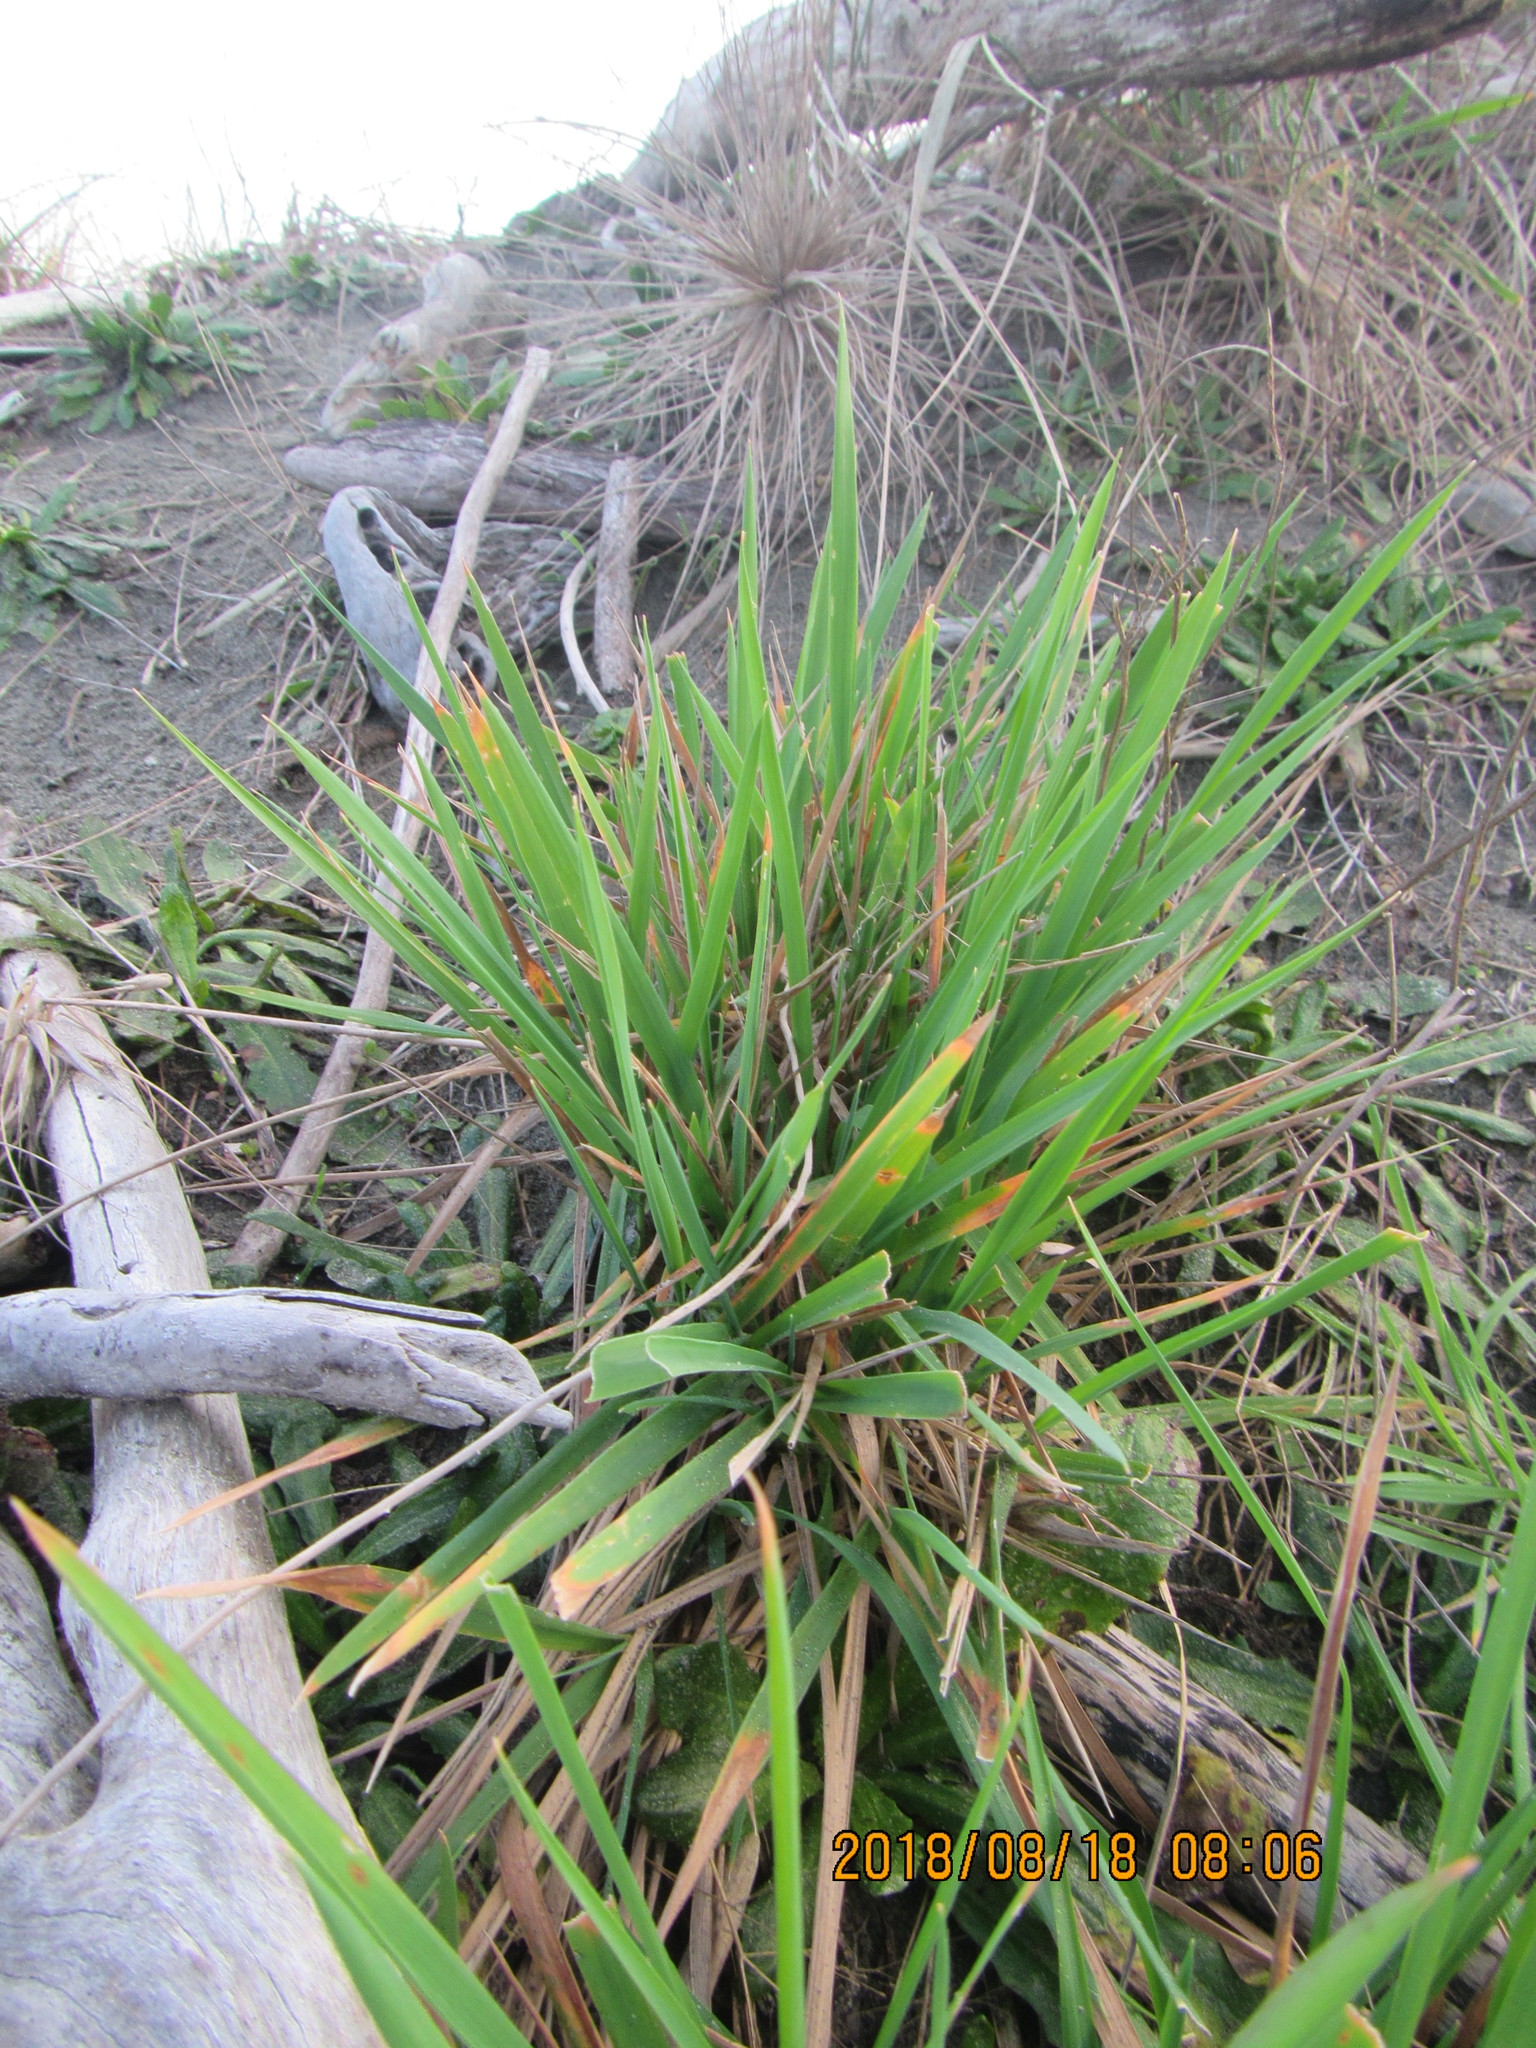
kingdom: Plantae
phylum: Tracheophyta
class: Liliopsida
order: Poales
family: Poaceae
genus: Lachnagrostis
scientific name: Lachnagrostis billardierei
